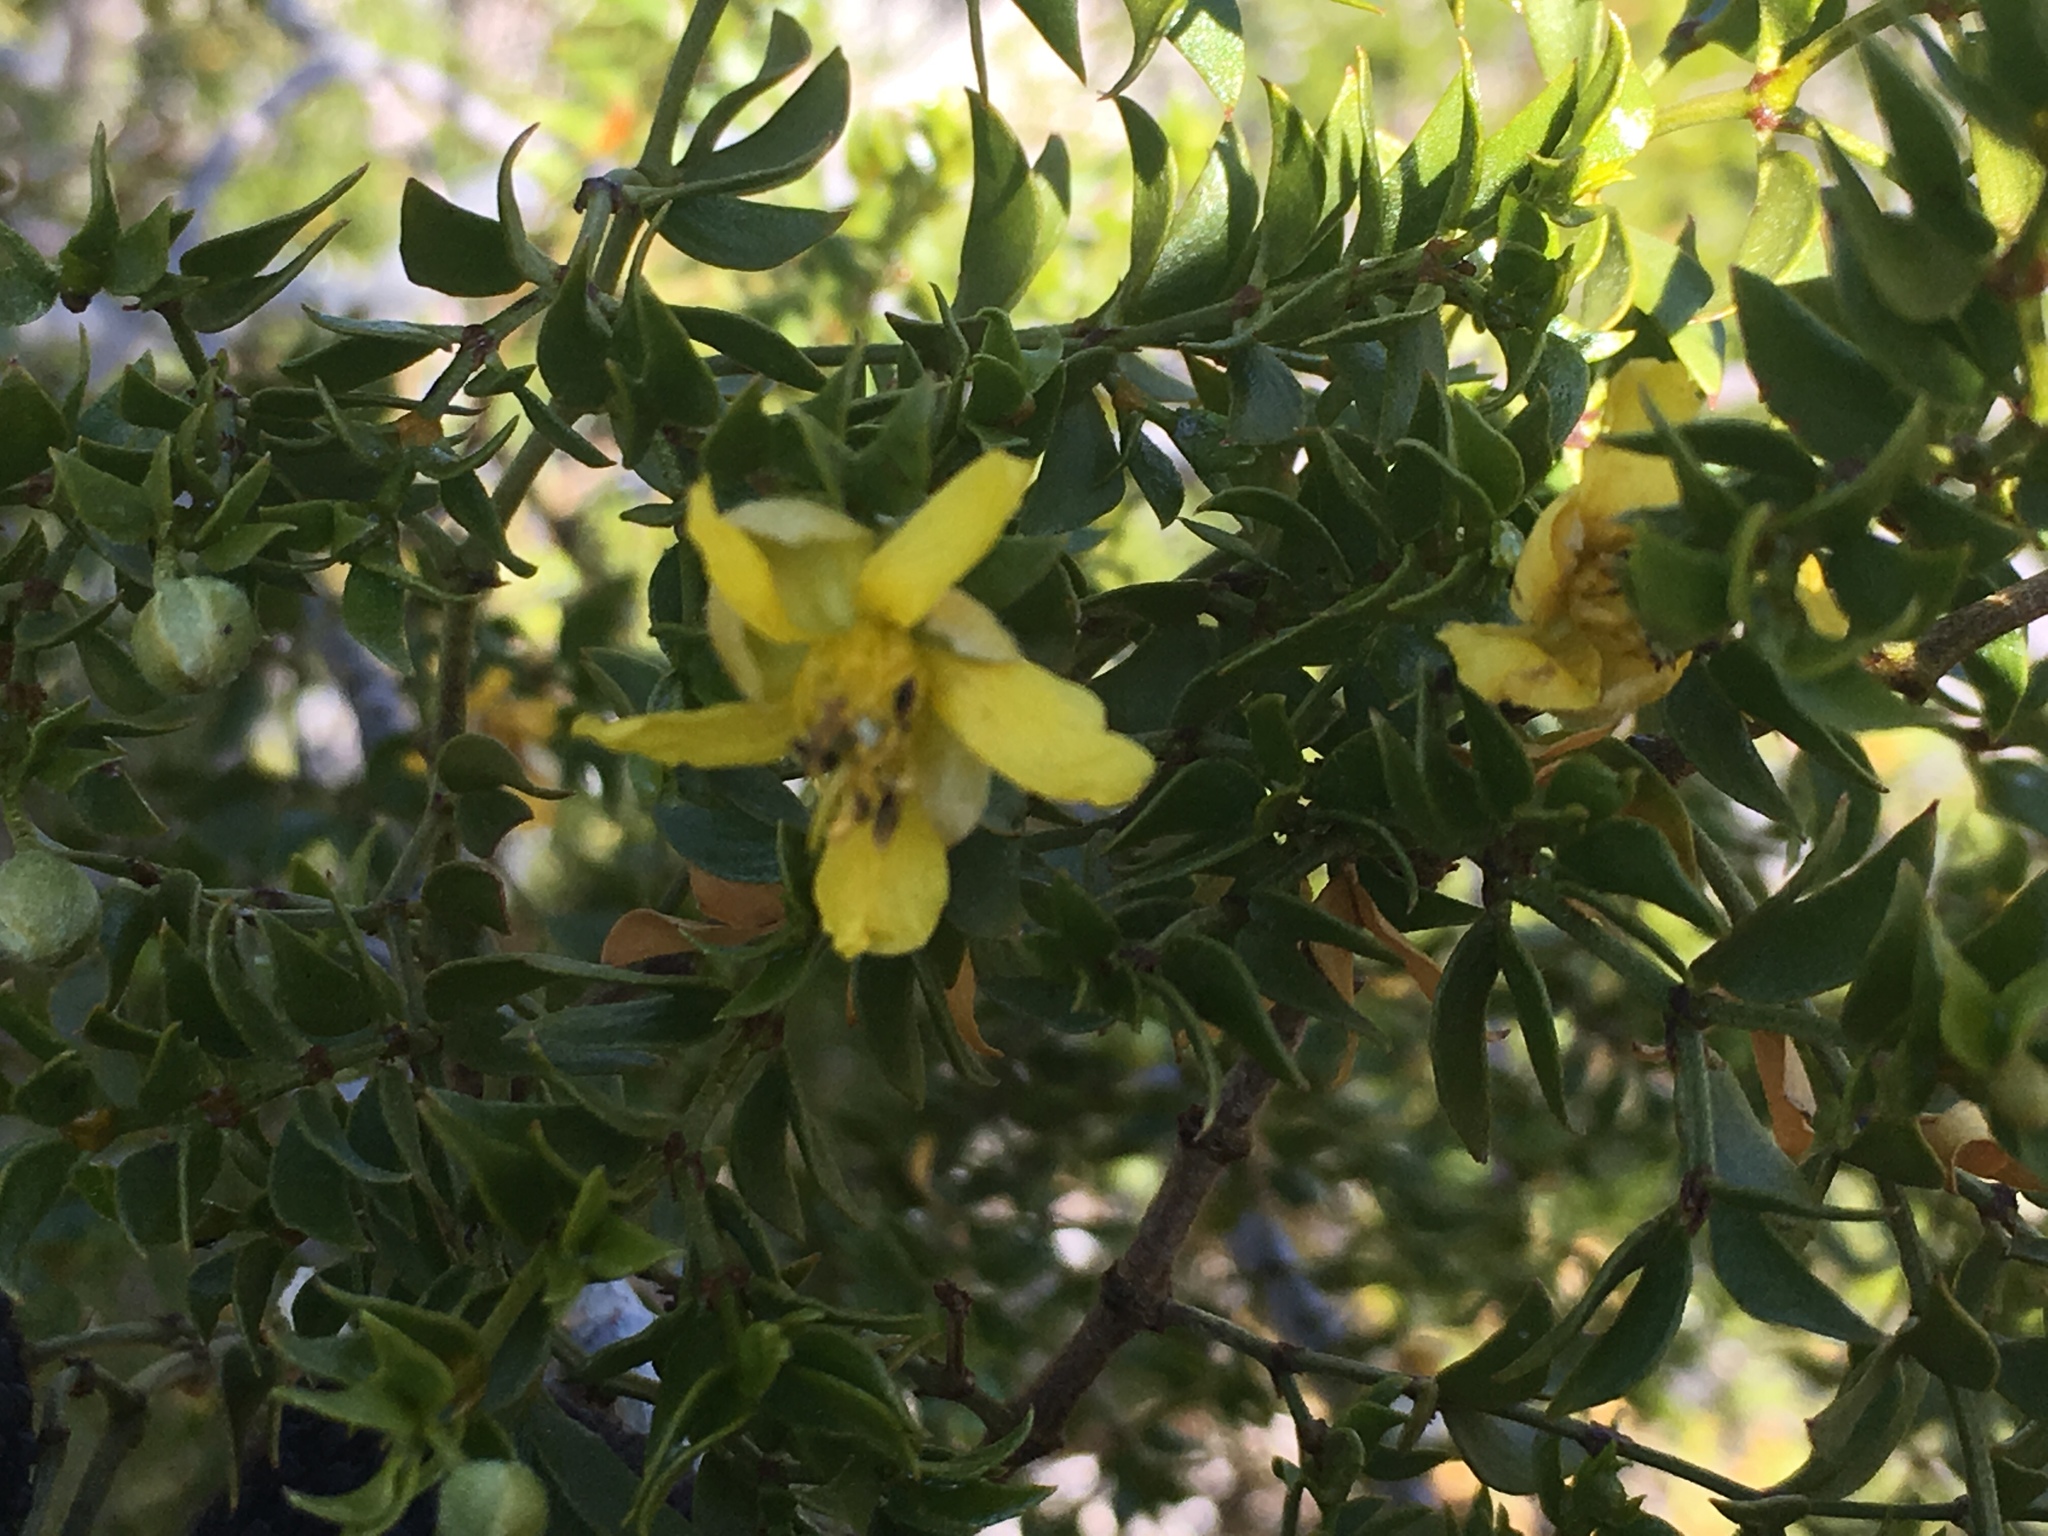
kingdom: Plantae
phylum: Tracheophyta
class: Magnoliopsida
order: Zygophyllales
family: Zygophyllaceae
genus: Larrea
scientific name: Larrea tridentata
